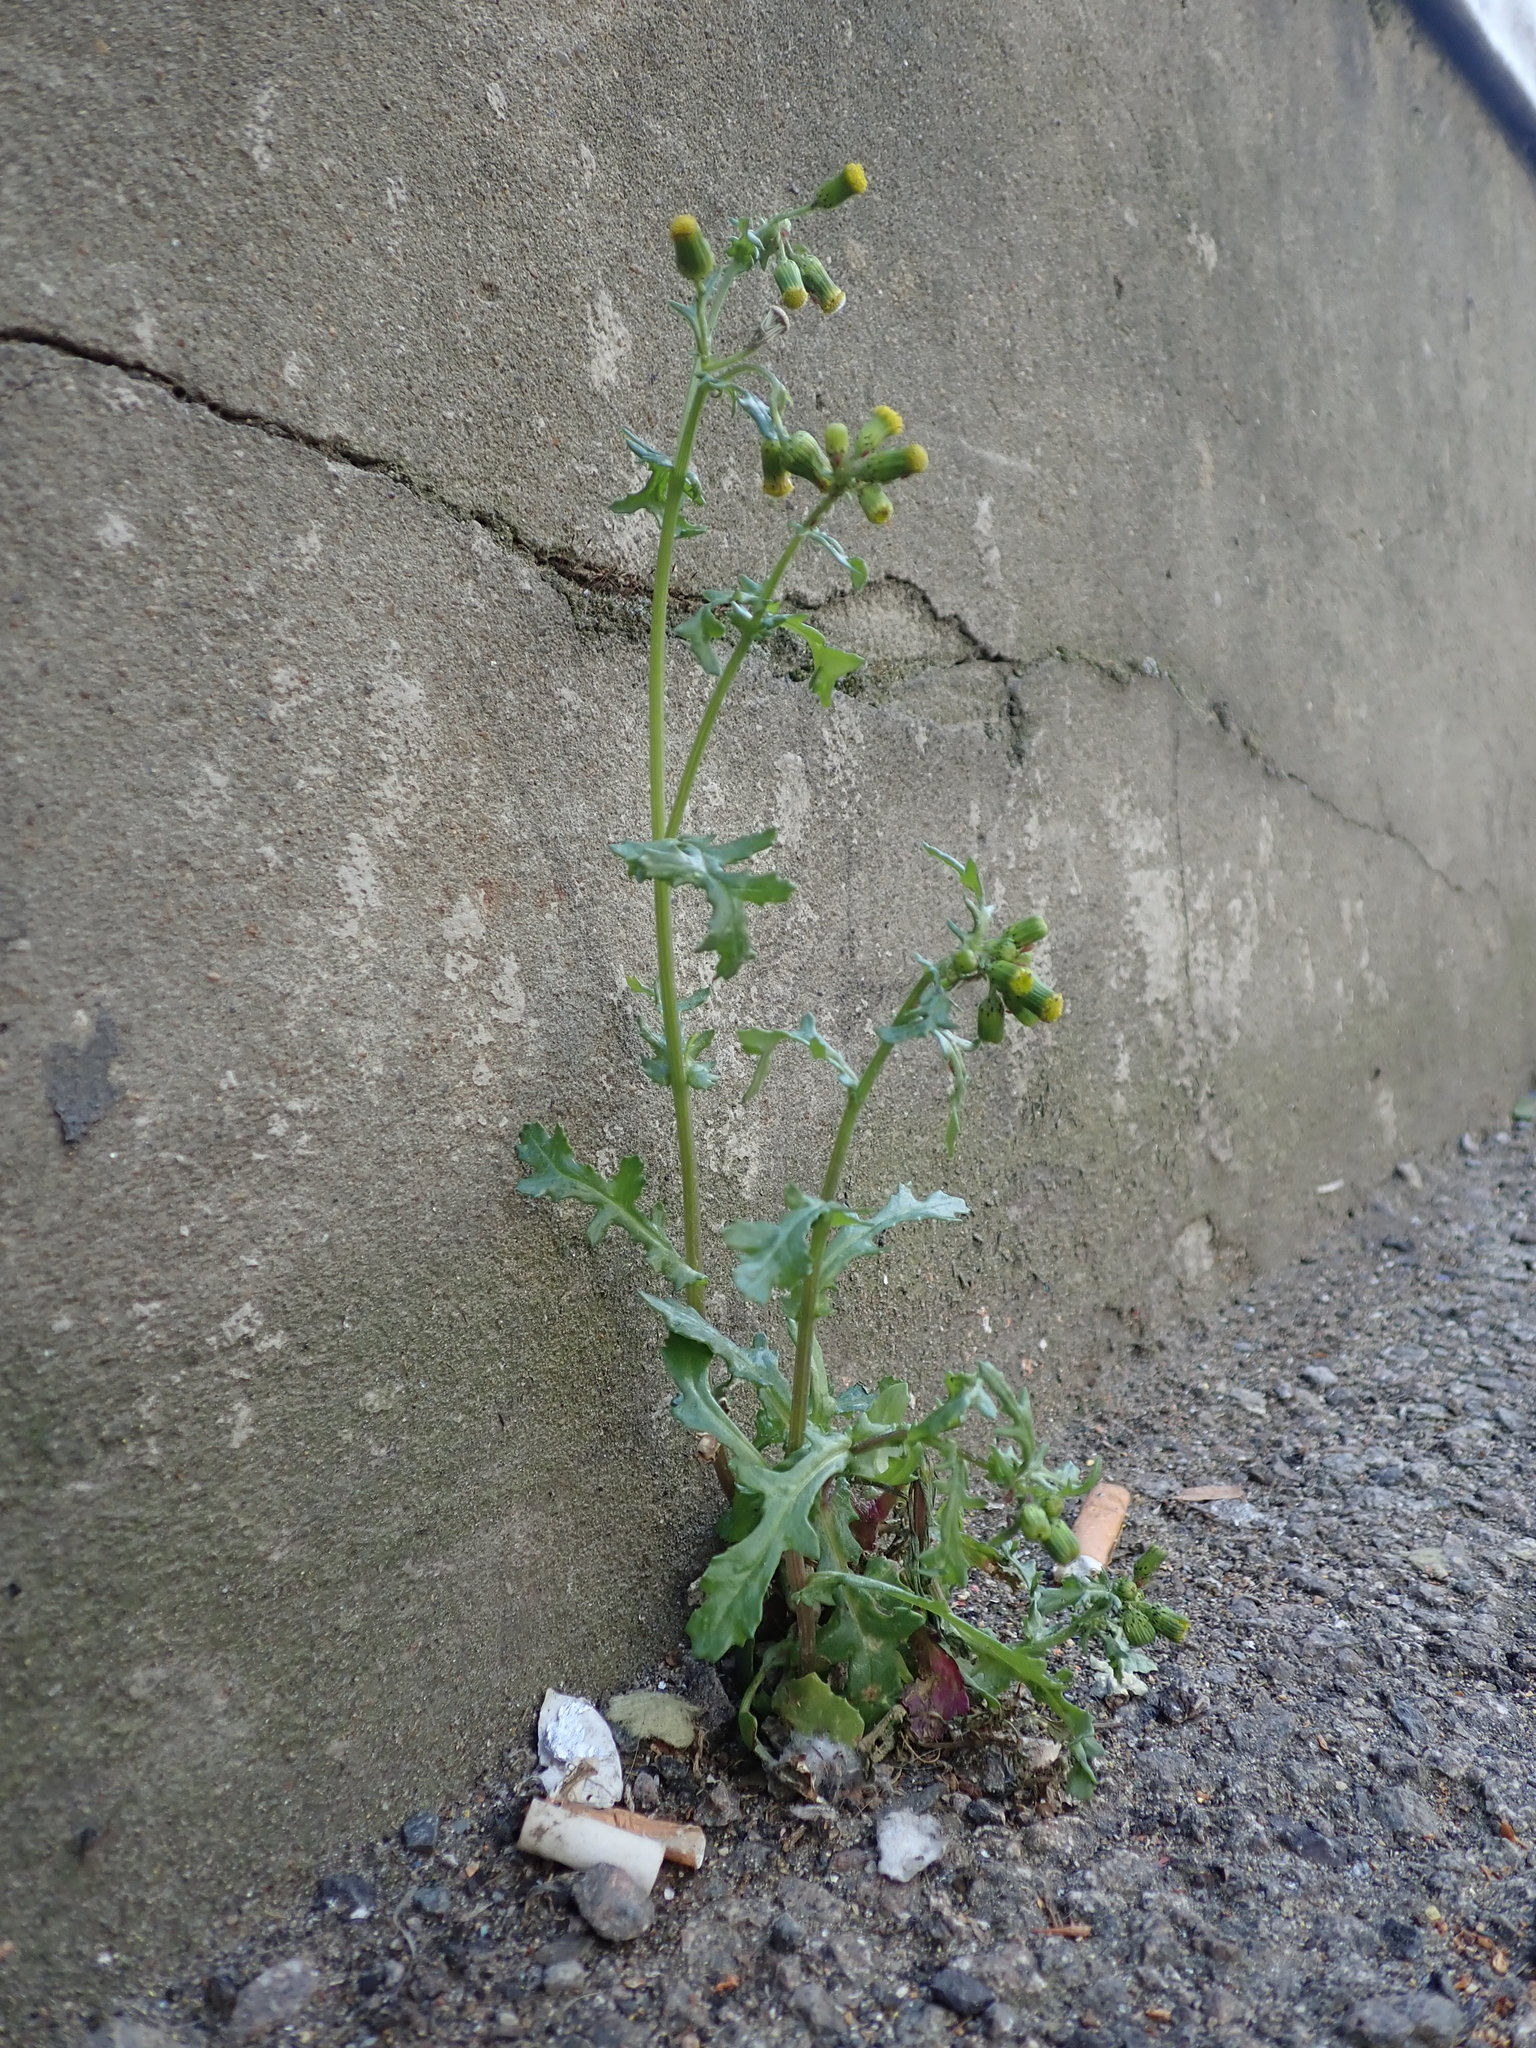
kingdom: Plantae
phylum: Tracheophyta
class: Magnoliopsida
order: Asterales
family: Asteraceae
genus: Senecio
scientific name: Senecio vulgaris
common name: Old-man-in-the-spring
